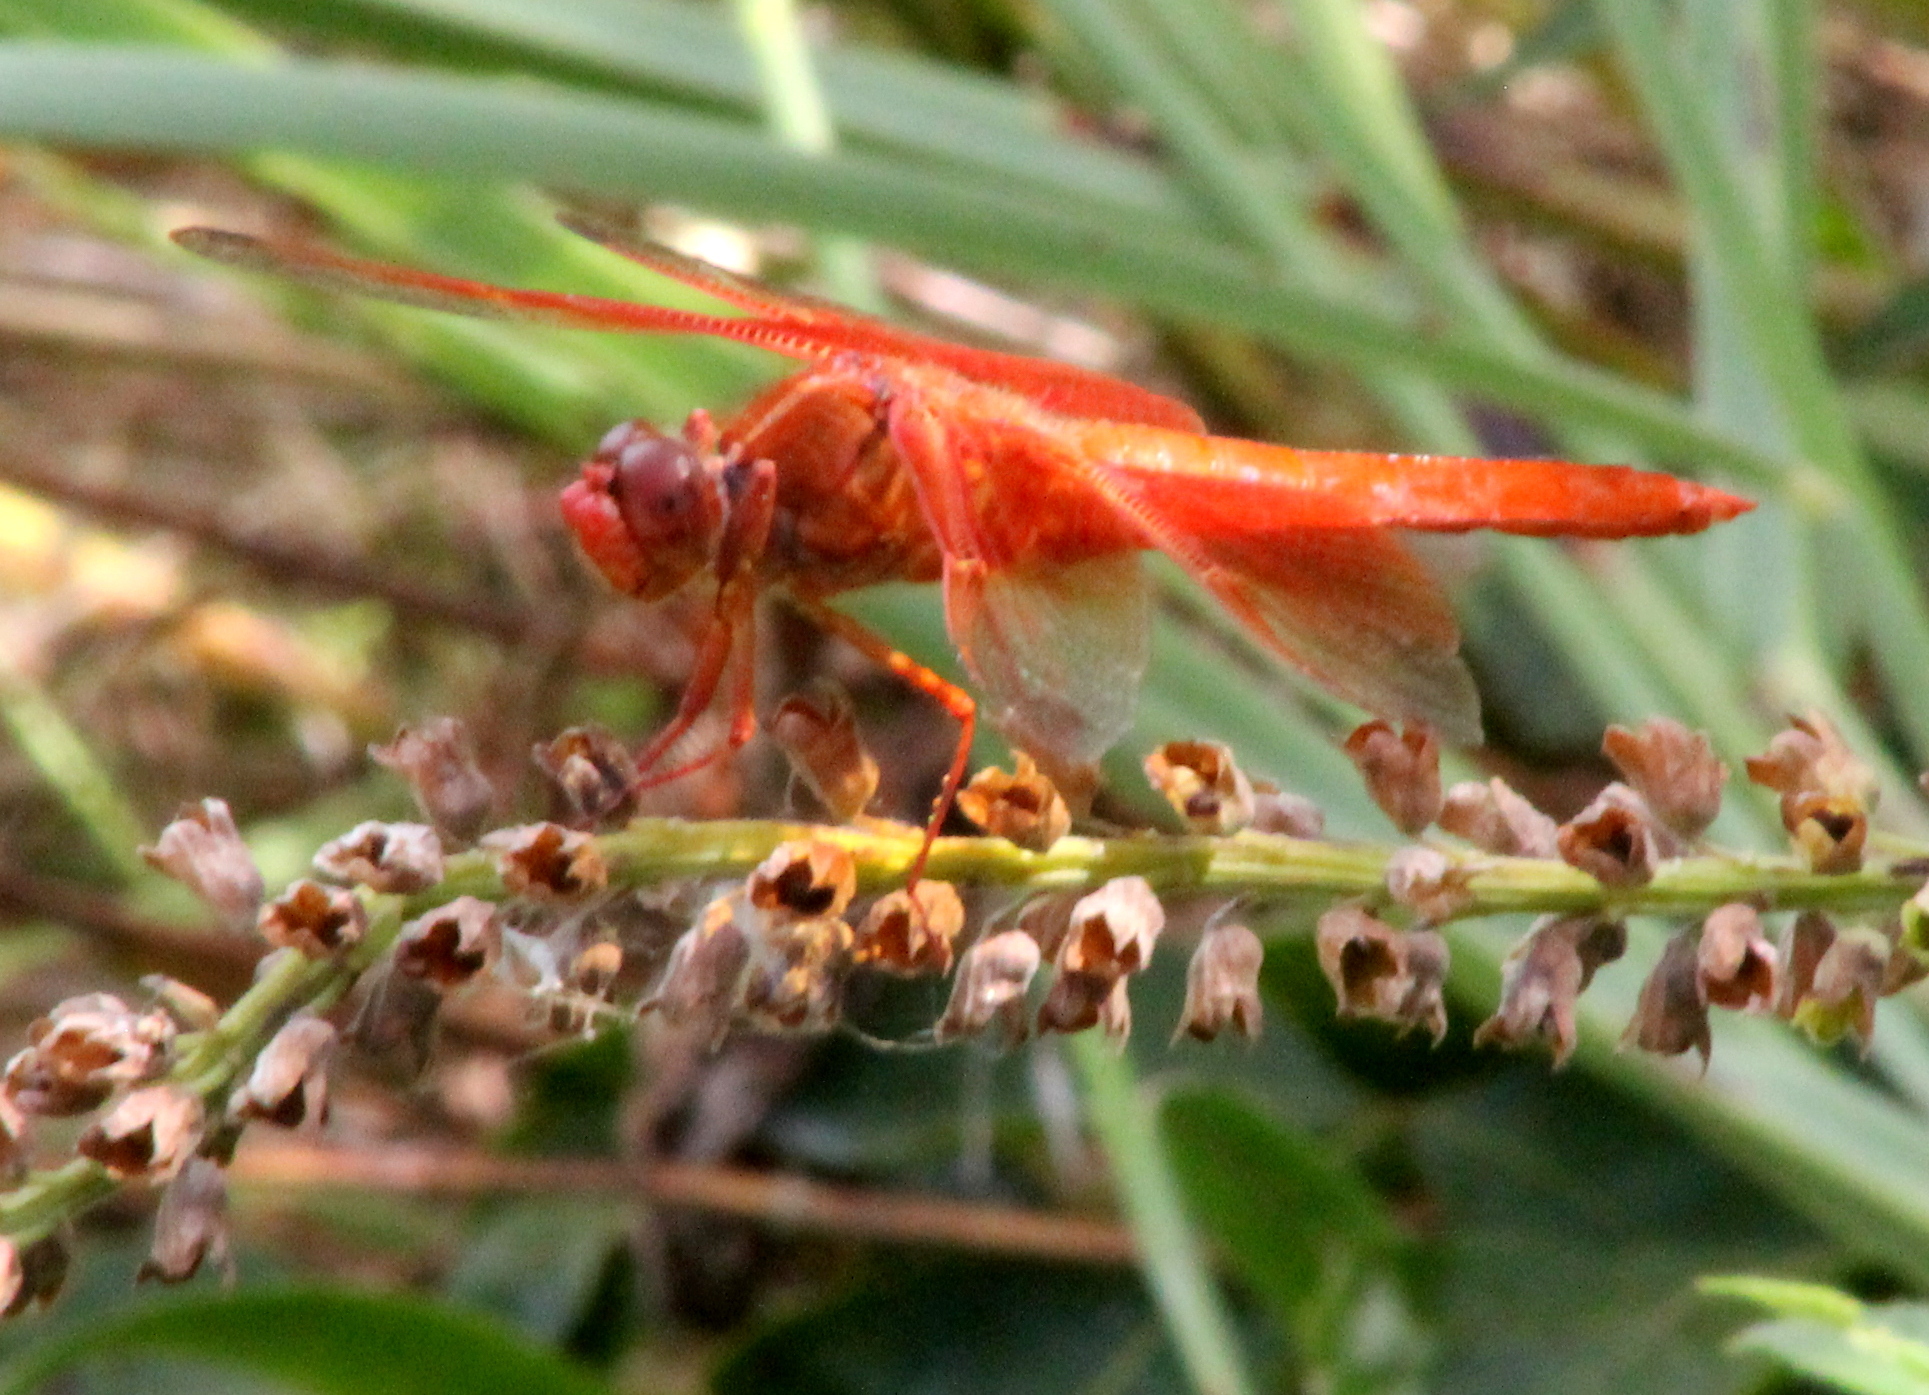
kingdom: Animalia
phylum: Arthropoda
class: Insecta
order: Odonata
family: Libellulidae
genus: Libellula
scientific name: Libellula saturata
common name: Flame skimmer
